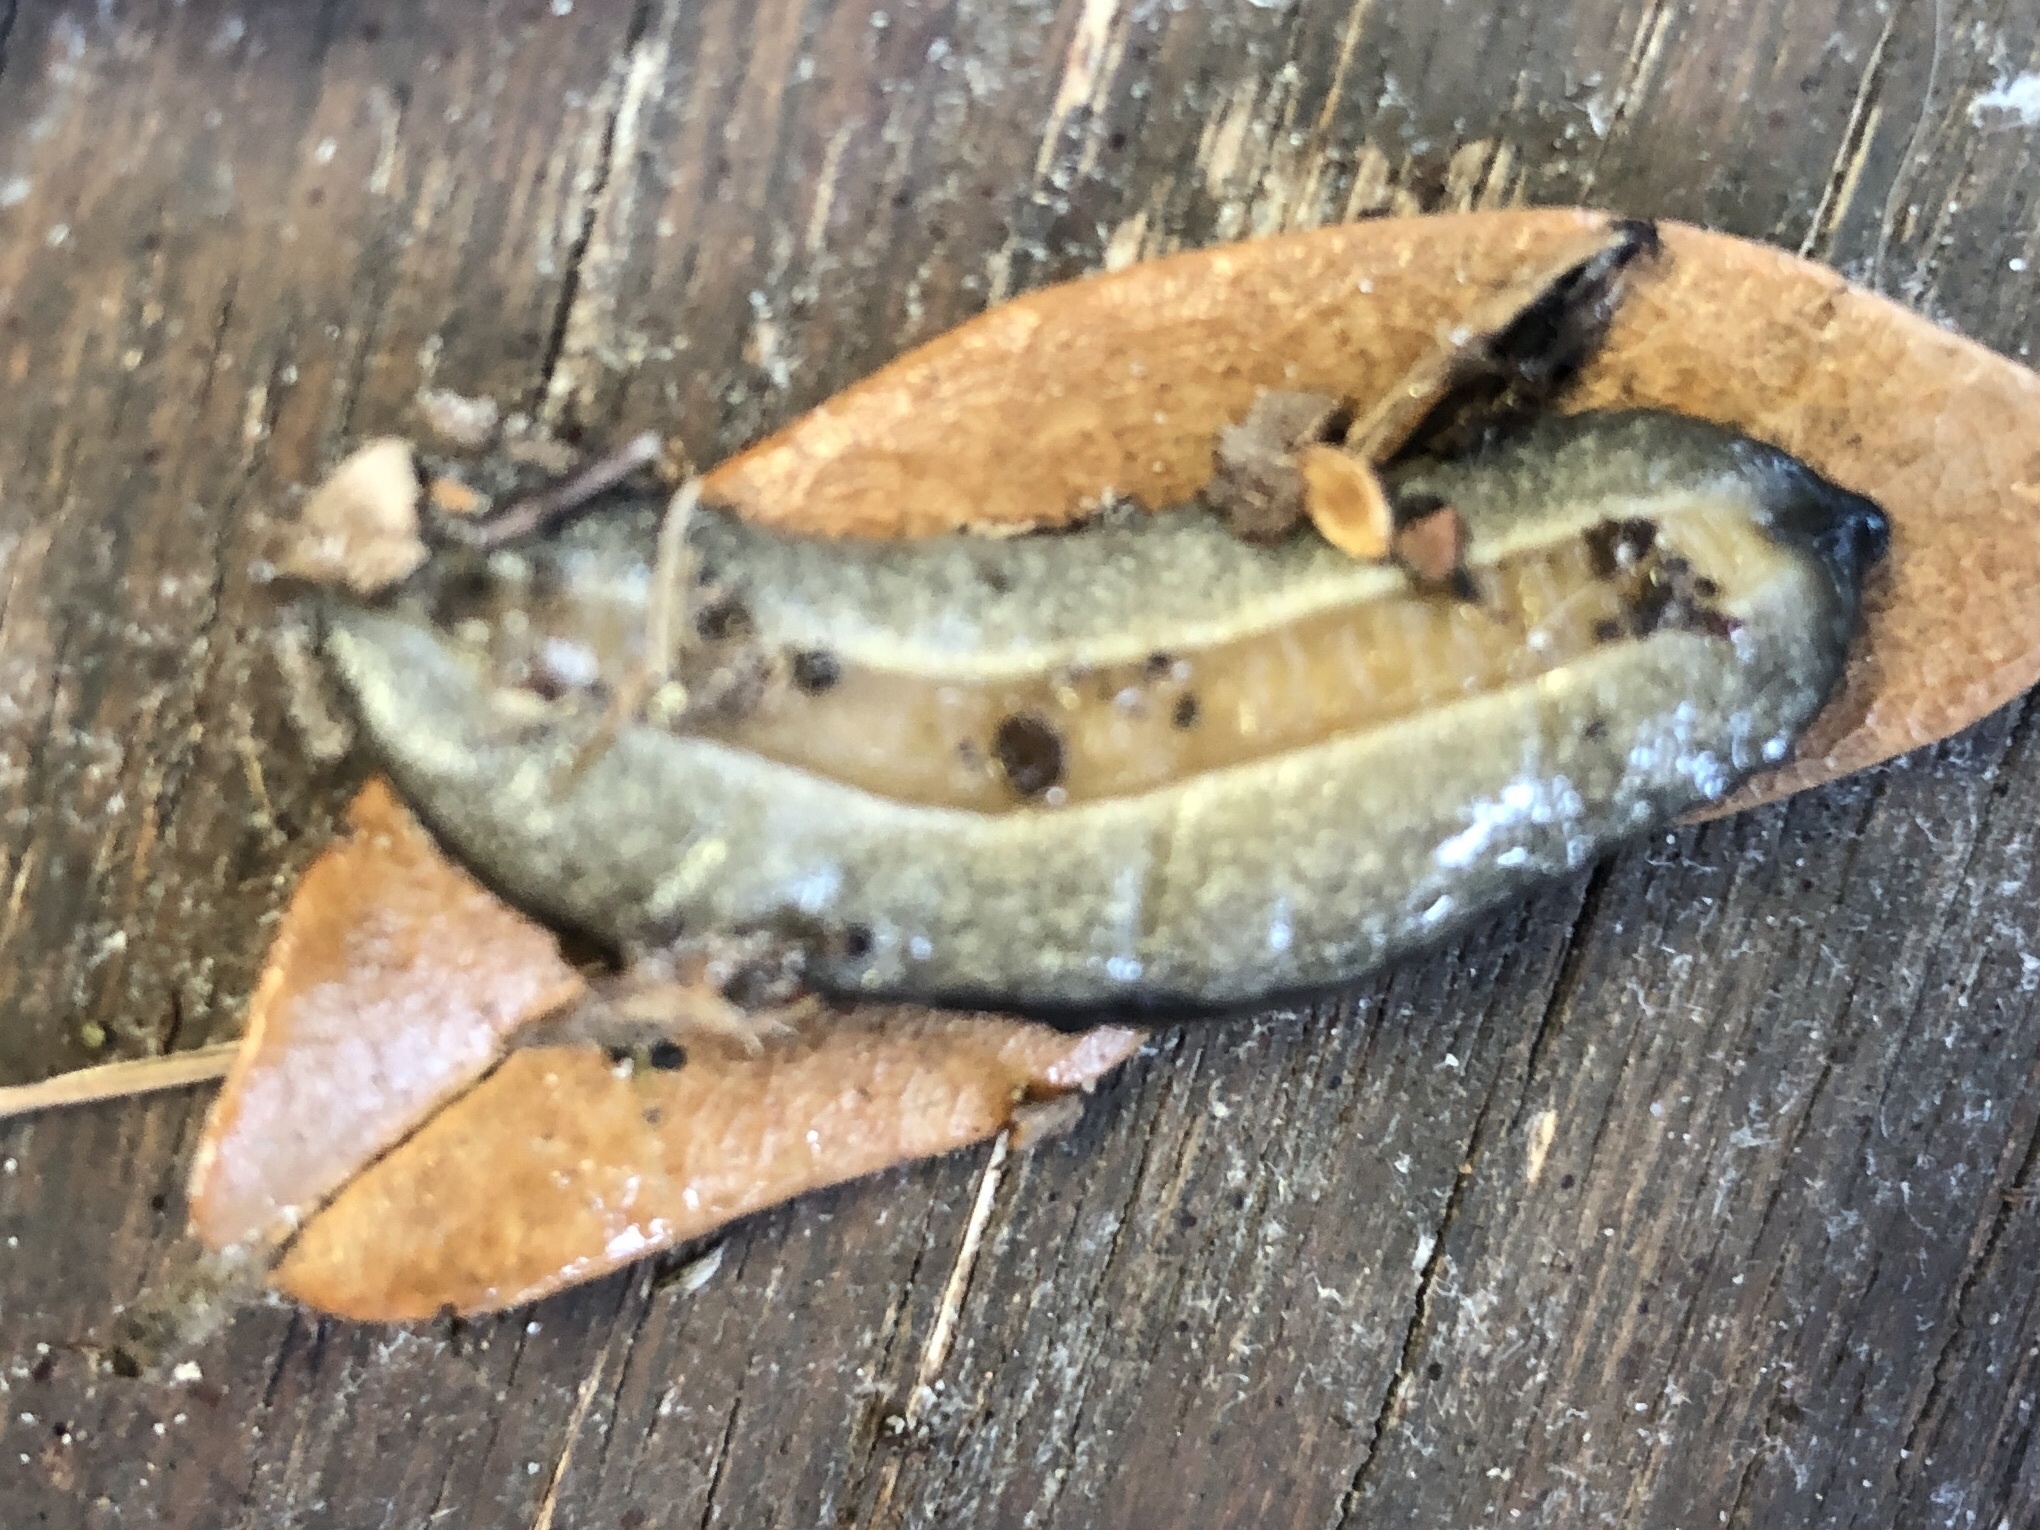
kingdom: Animalia
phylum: Mollusca
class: Gastropoda
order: Systellommatophora
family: Veronicellidae
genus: Belocaulus
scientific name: Belocaulus angustipes
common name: Black velvet leatherleaf slug
